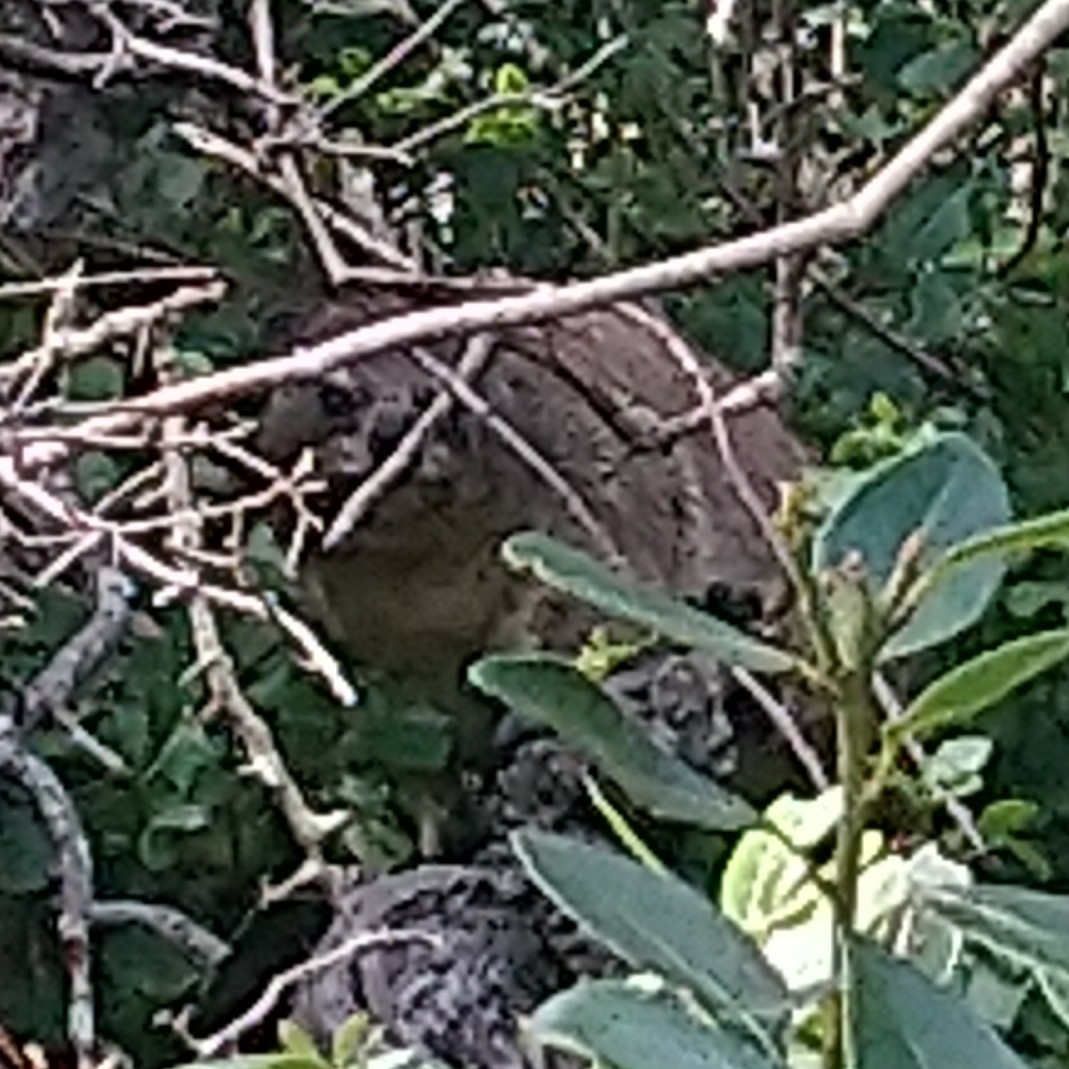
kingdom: Animalia
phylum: Chordata
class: Mammalia
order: Hyracoidea
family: Procaviidae
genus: Procavia
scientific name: Procavia capensis
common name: Rock hyrax
